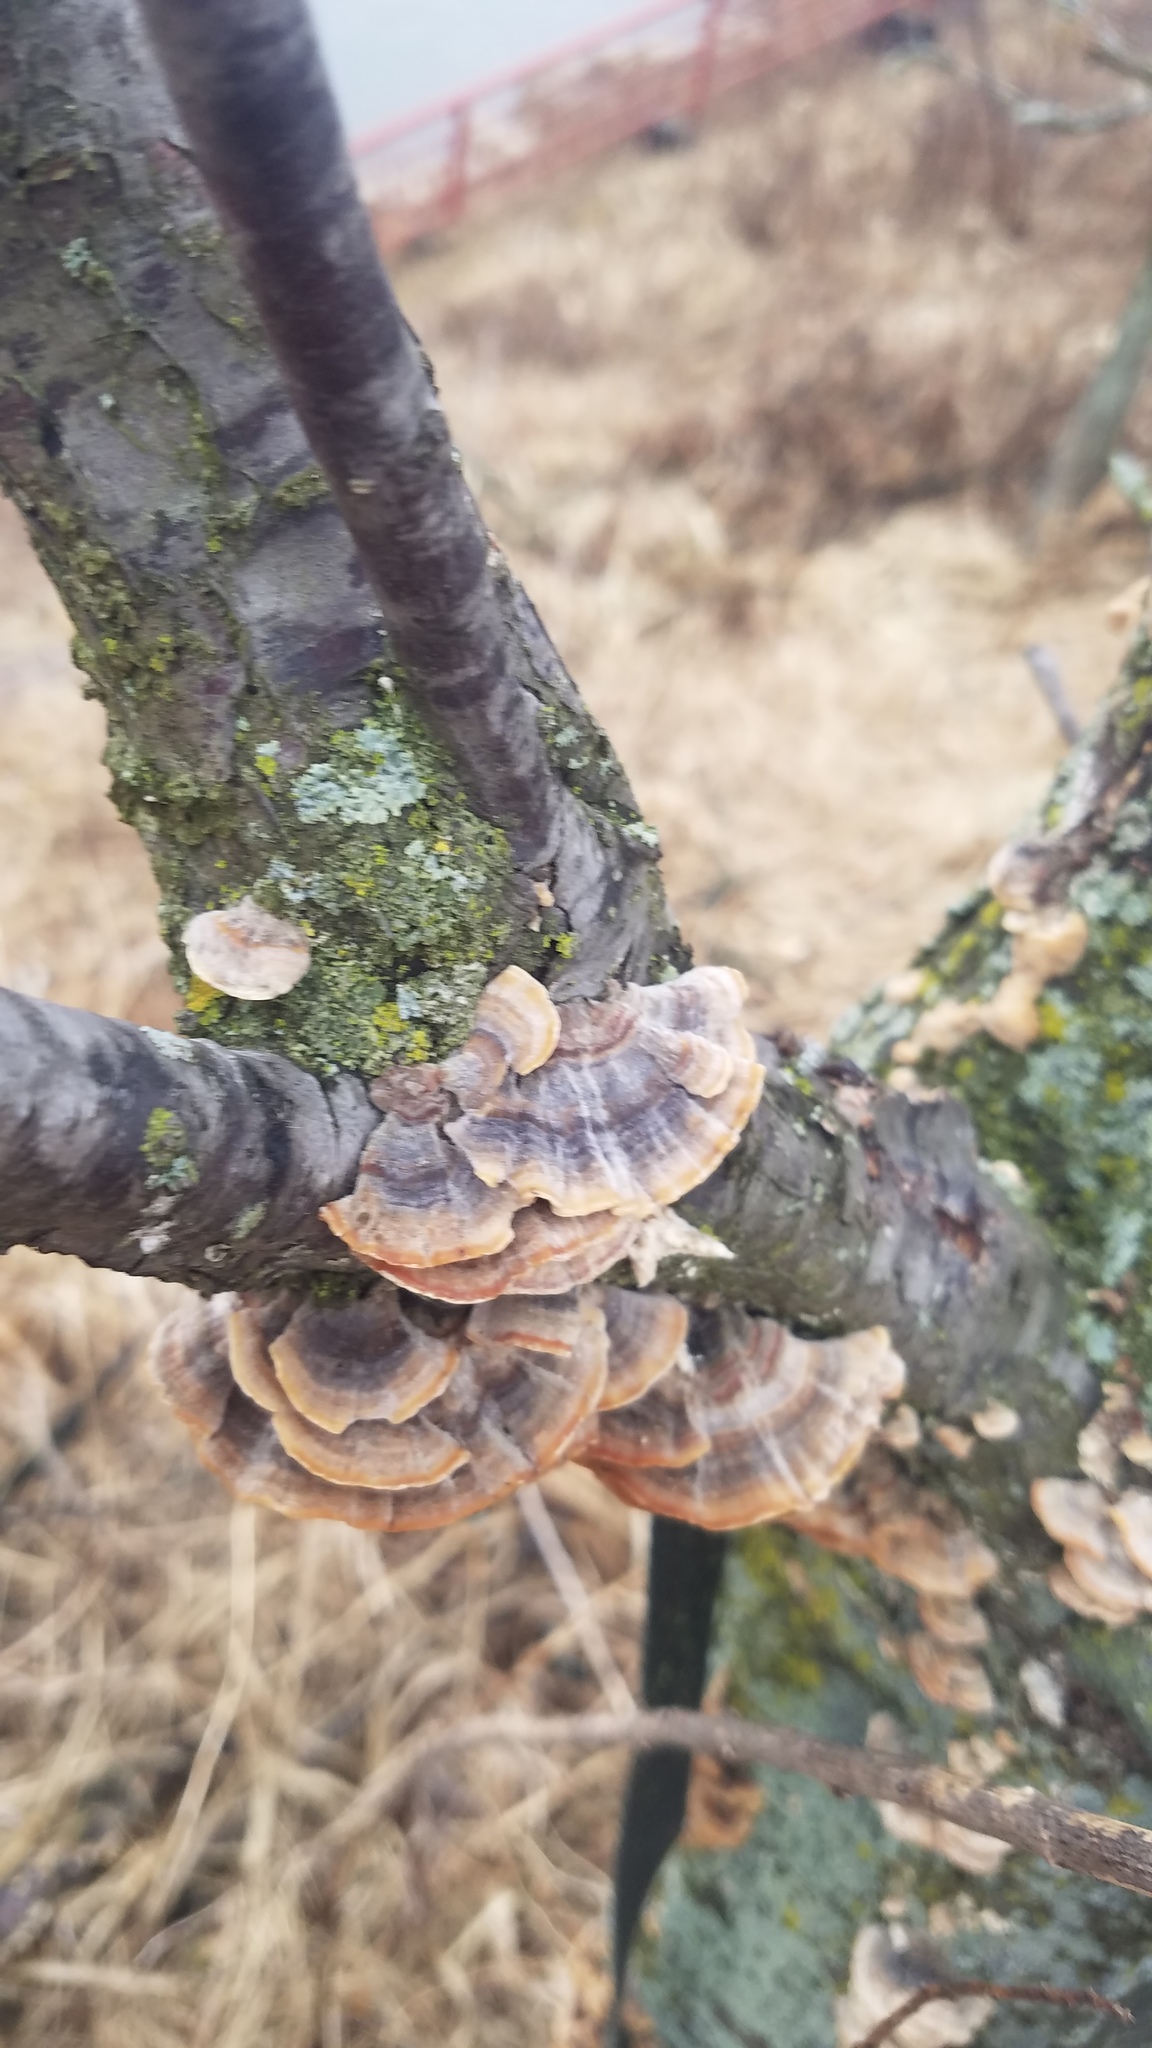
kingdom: Fungi
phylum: Basidiomycota
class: Agaricomycetes
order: Polyporales
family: Polyporaceae
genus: Trametes
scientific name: Trametes versicolor
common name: Turkeytail
